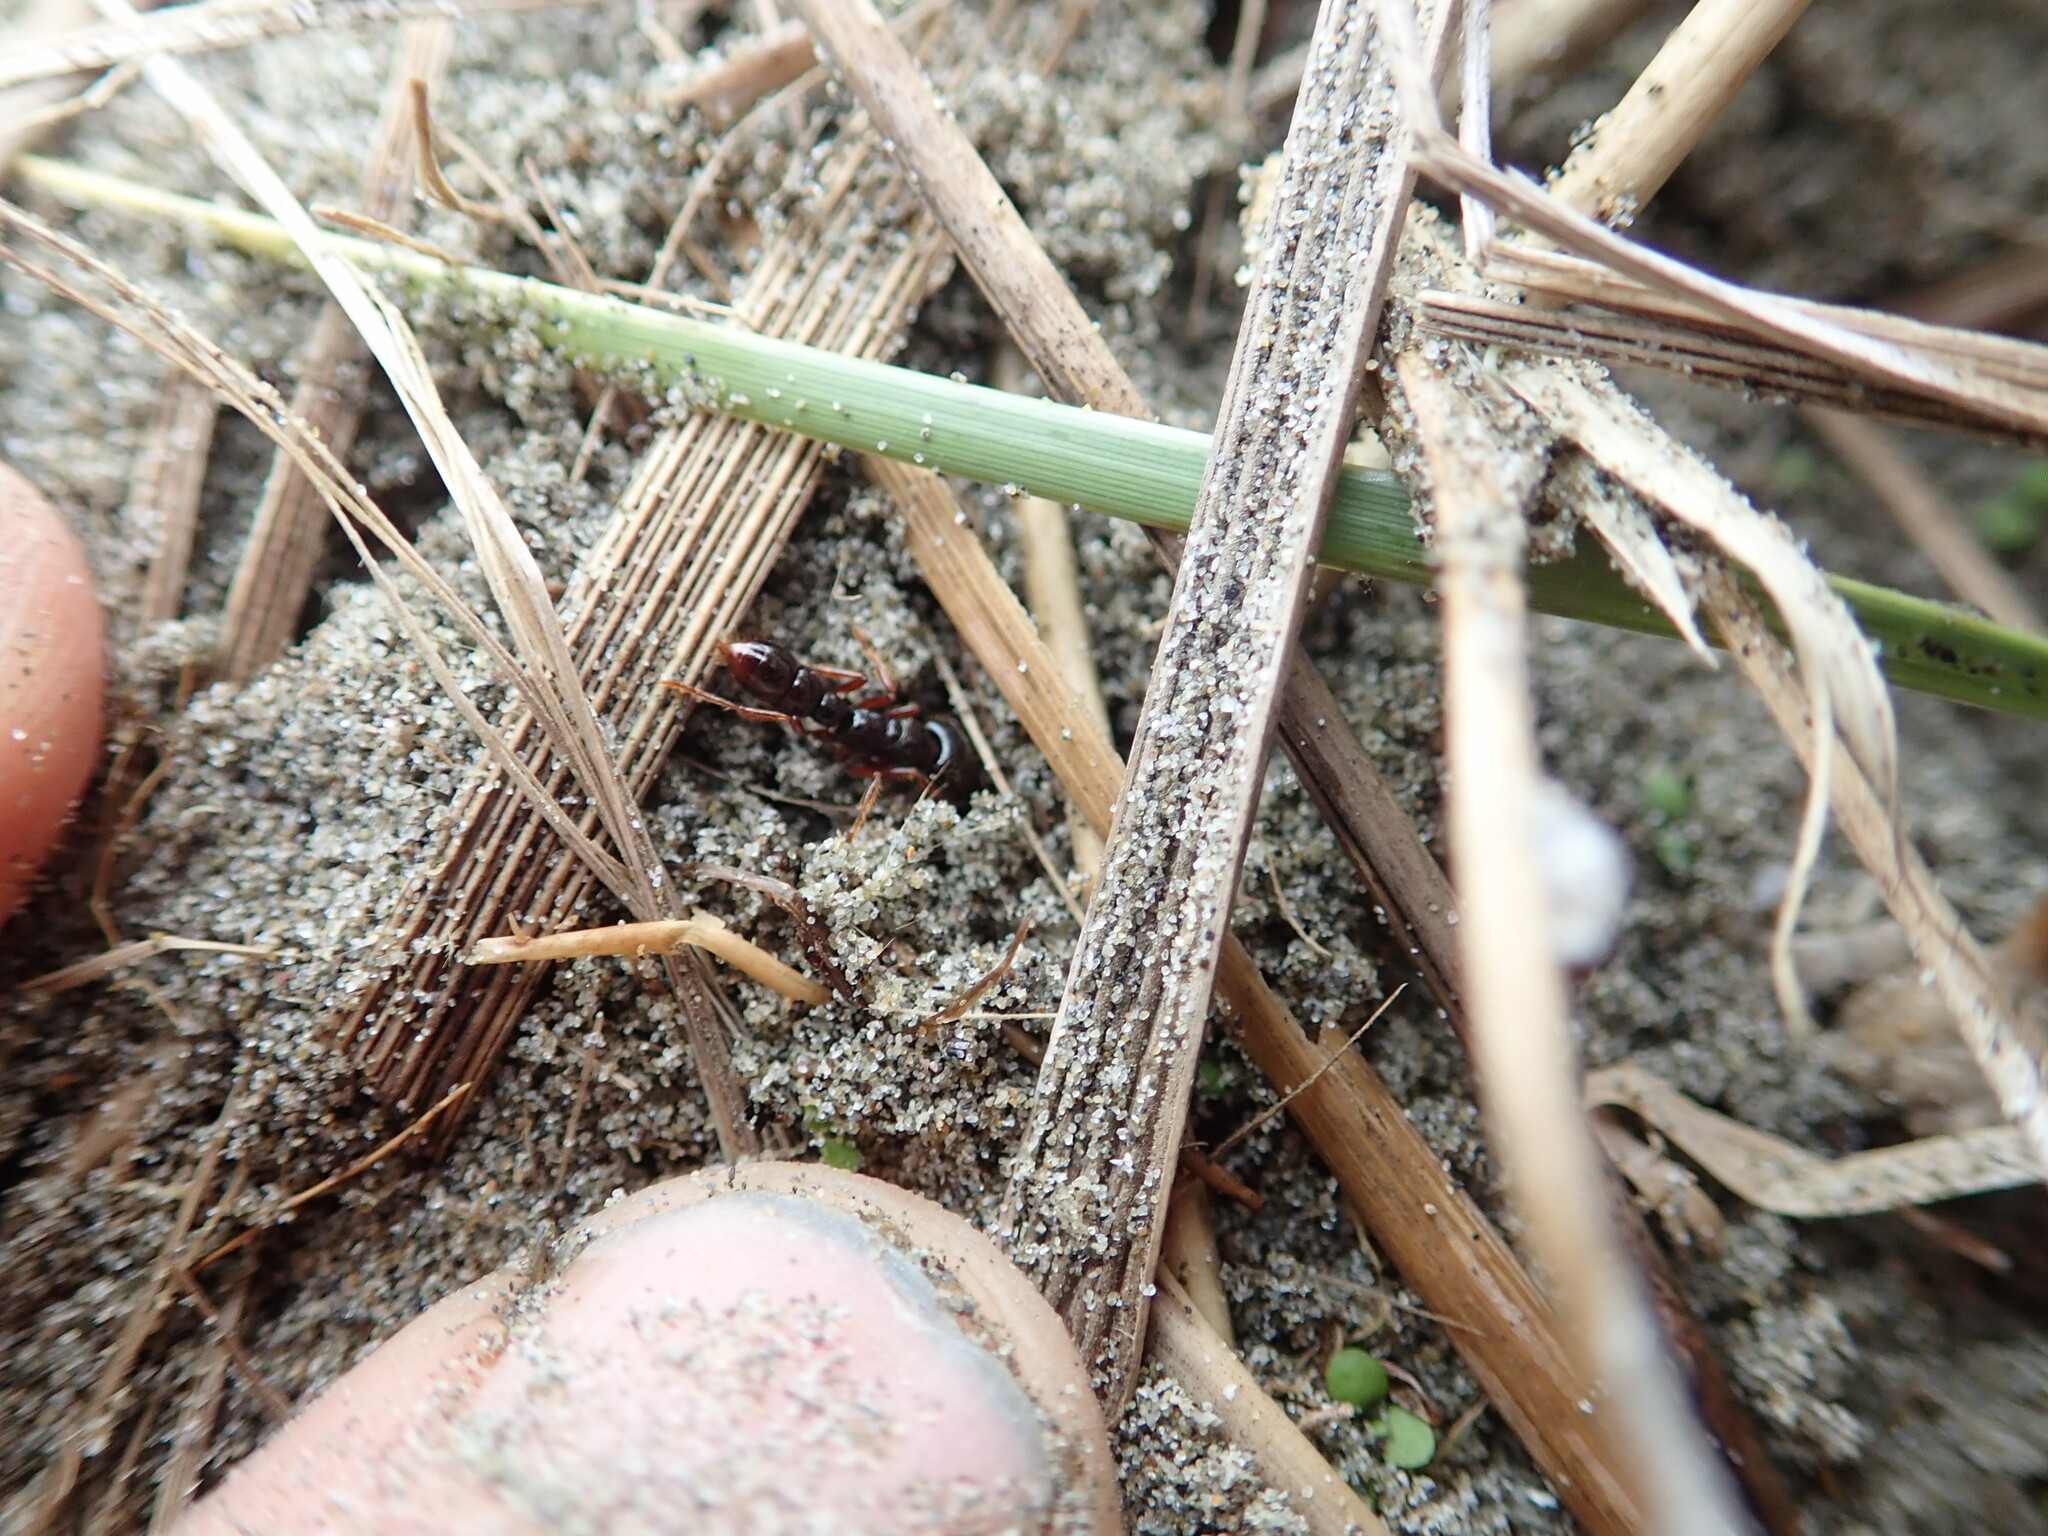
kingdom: Animalia
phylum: Arthropoda
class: Insecta
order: Hymenoptera
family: Formicidae
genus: Amblyopone
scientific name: Amblyopone australis
